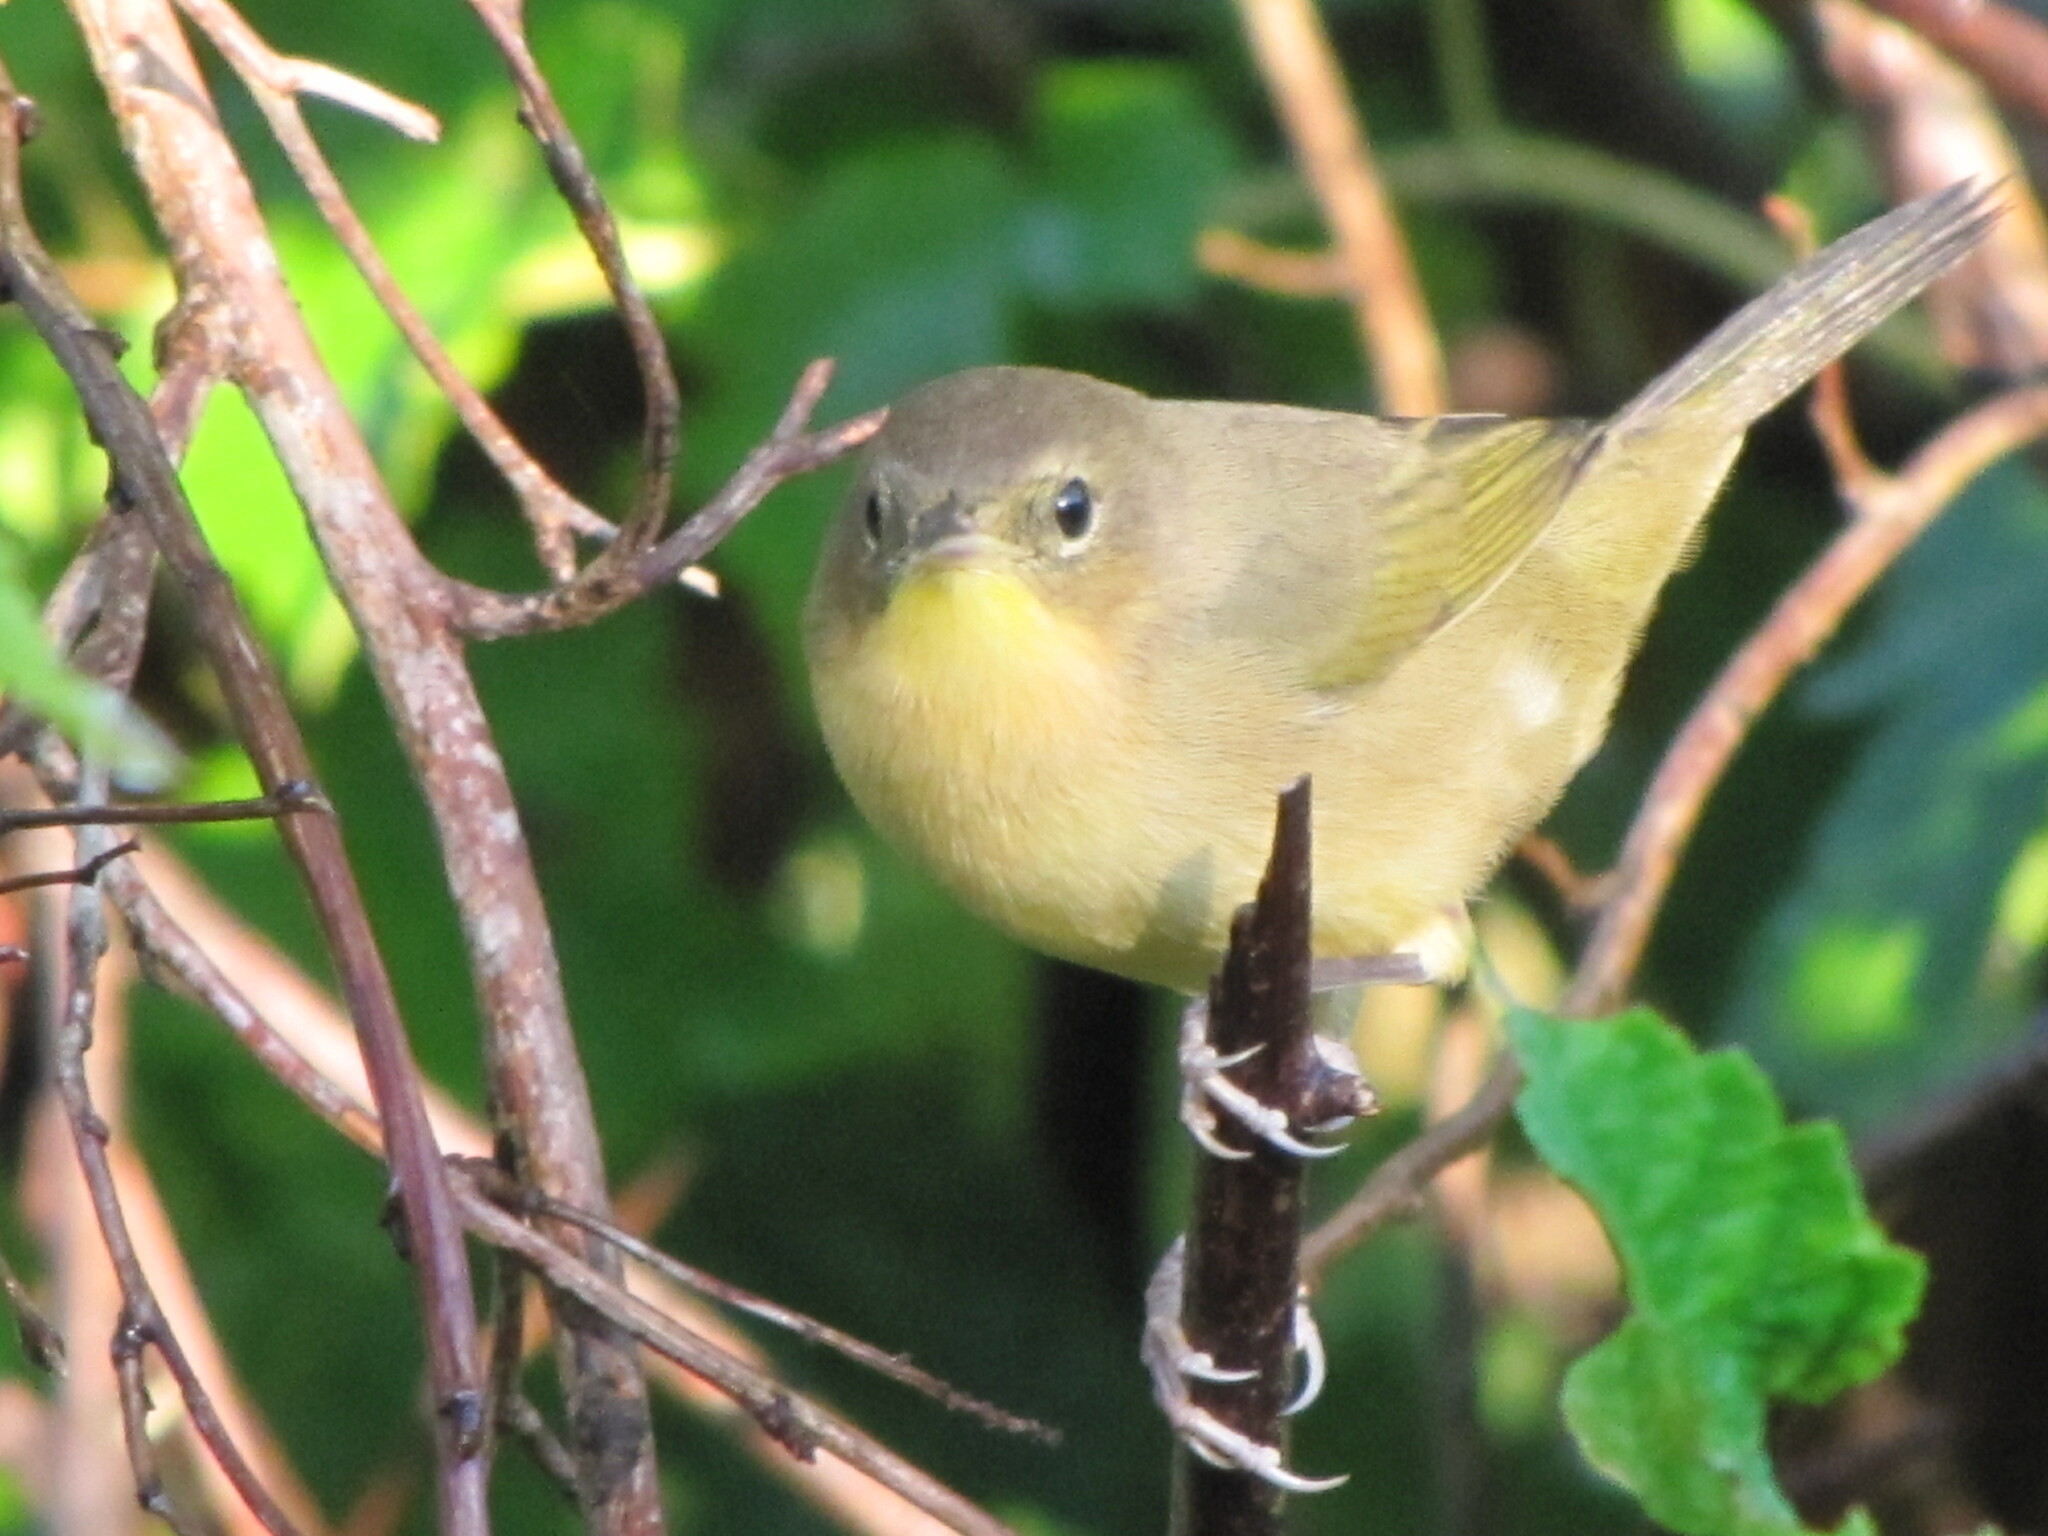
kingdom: Animalia
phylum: Chordata
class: Aves
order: Passeriformes
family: Parulidae
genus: Geothlypis
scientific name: Geothlypis trichas
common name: Common yellowthroat
